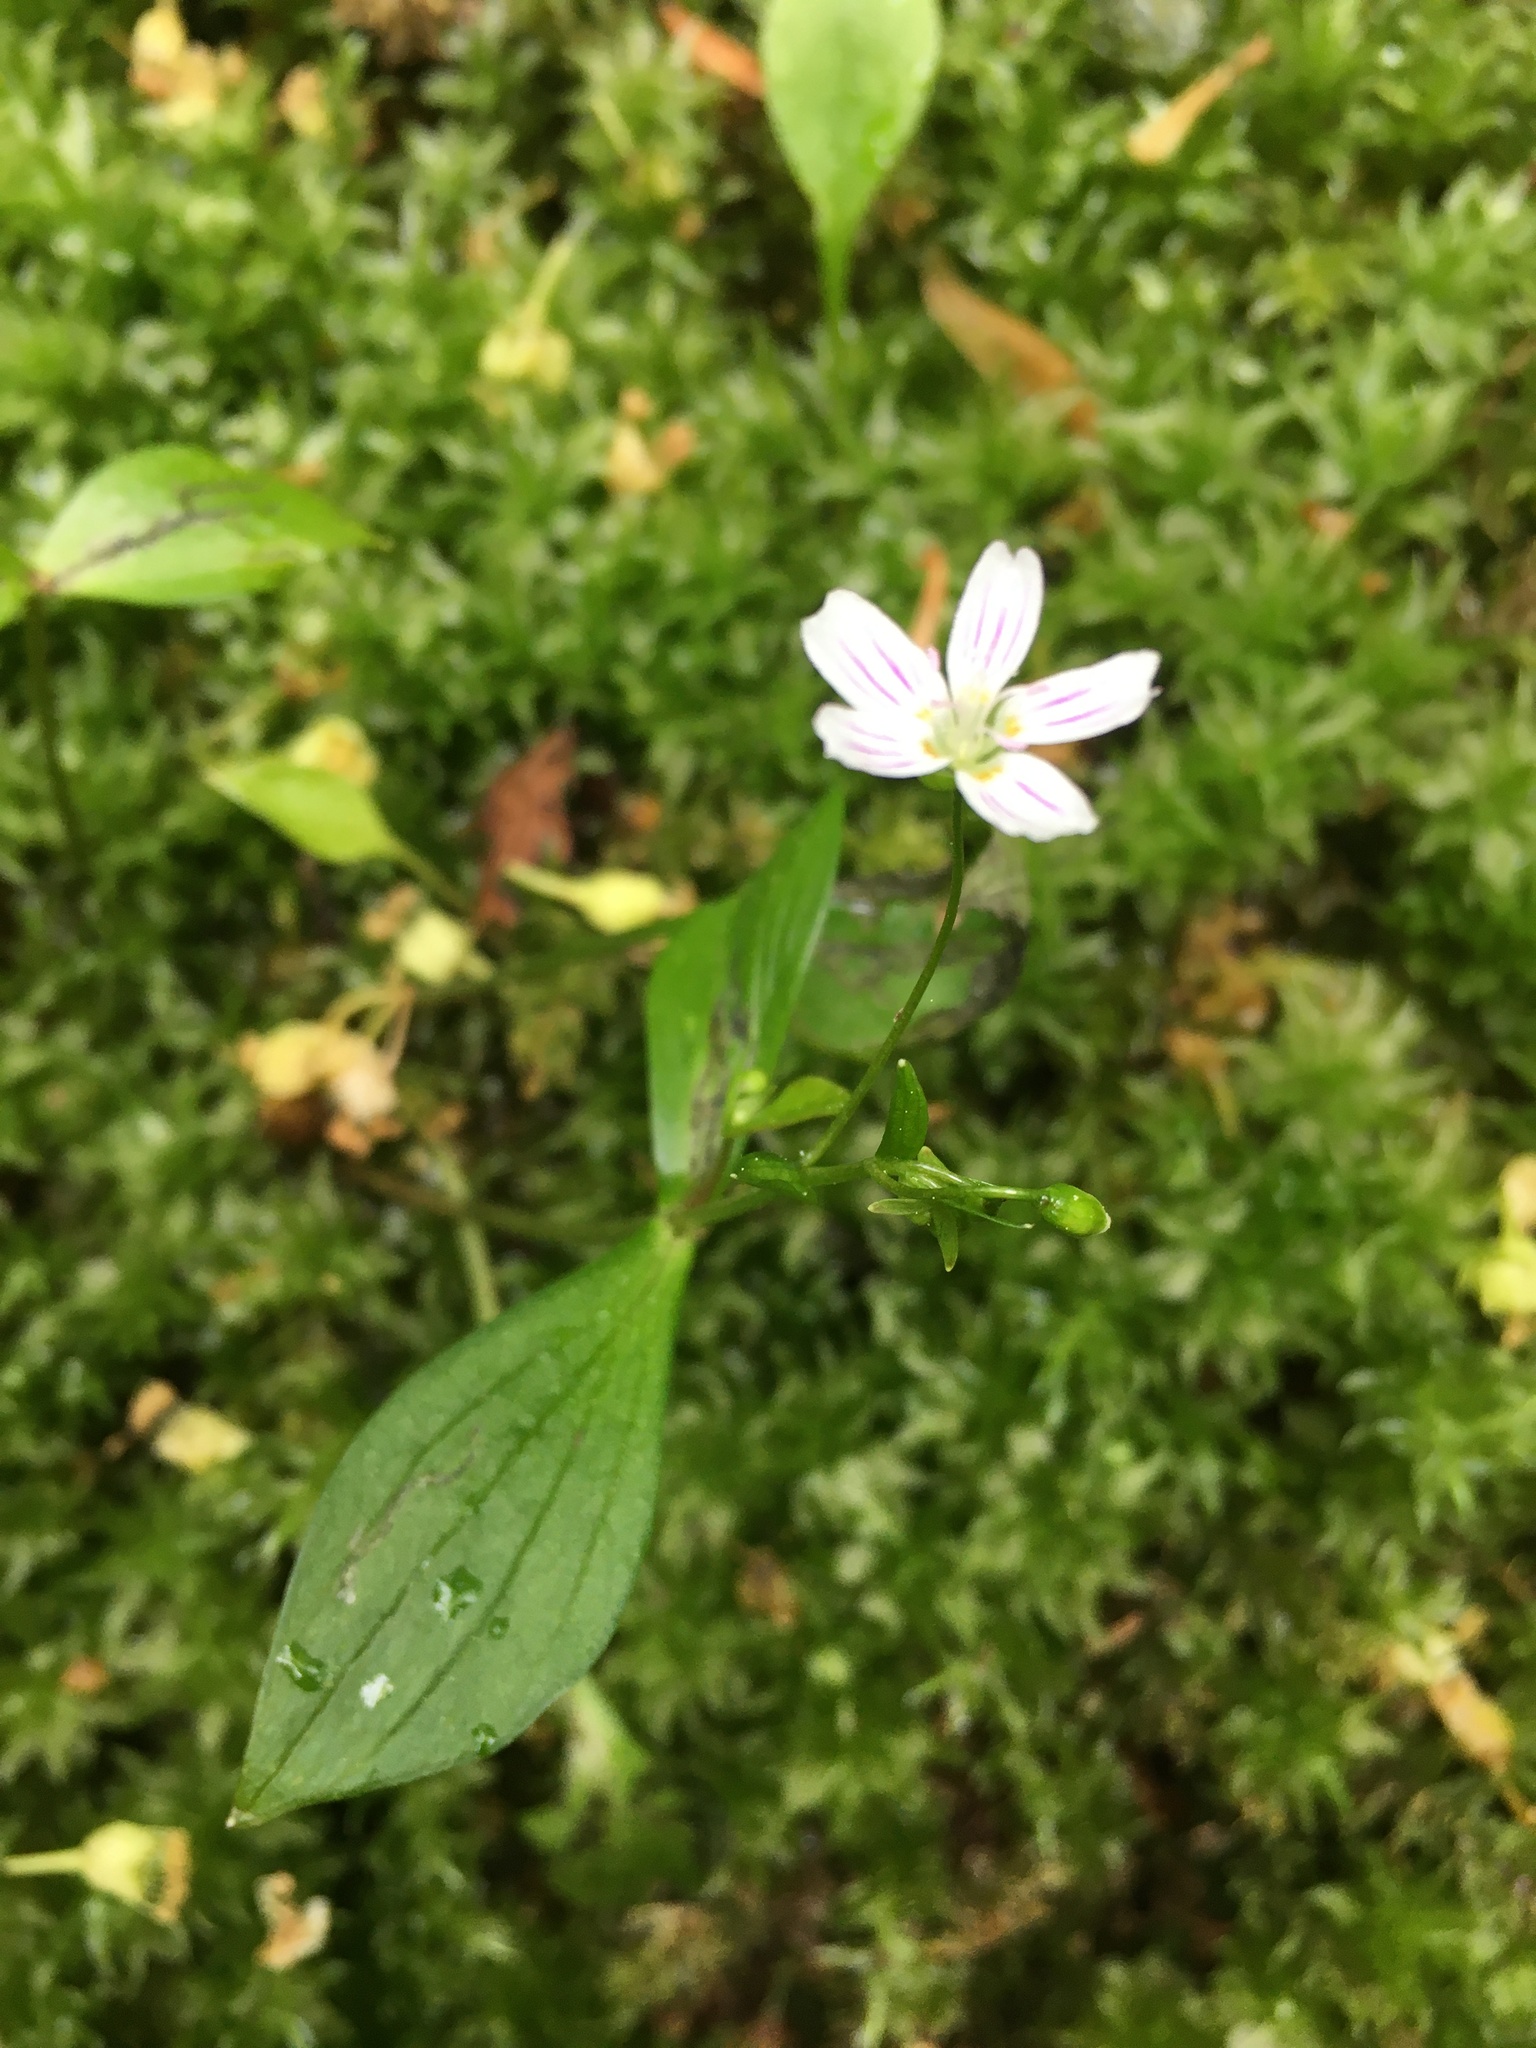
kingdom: Plantae
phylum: Tracheophyta
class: Magnoliopsida
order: Caryophyllales
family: Montiaceae
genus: Claytonia
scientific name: Claytonia sibirica
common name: Pink purslane
